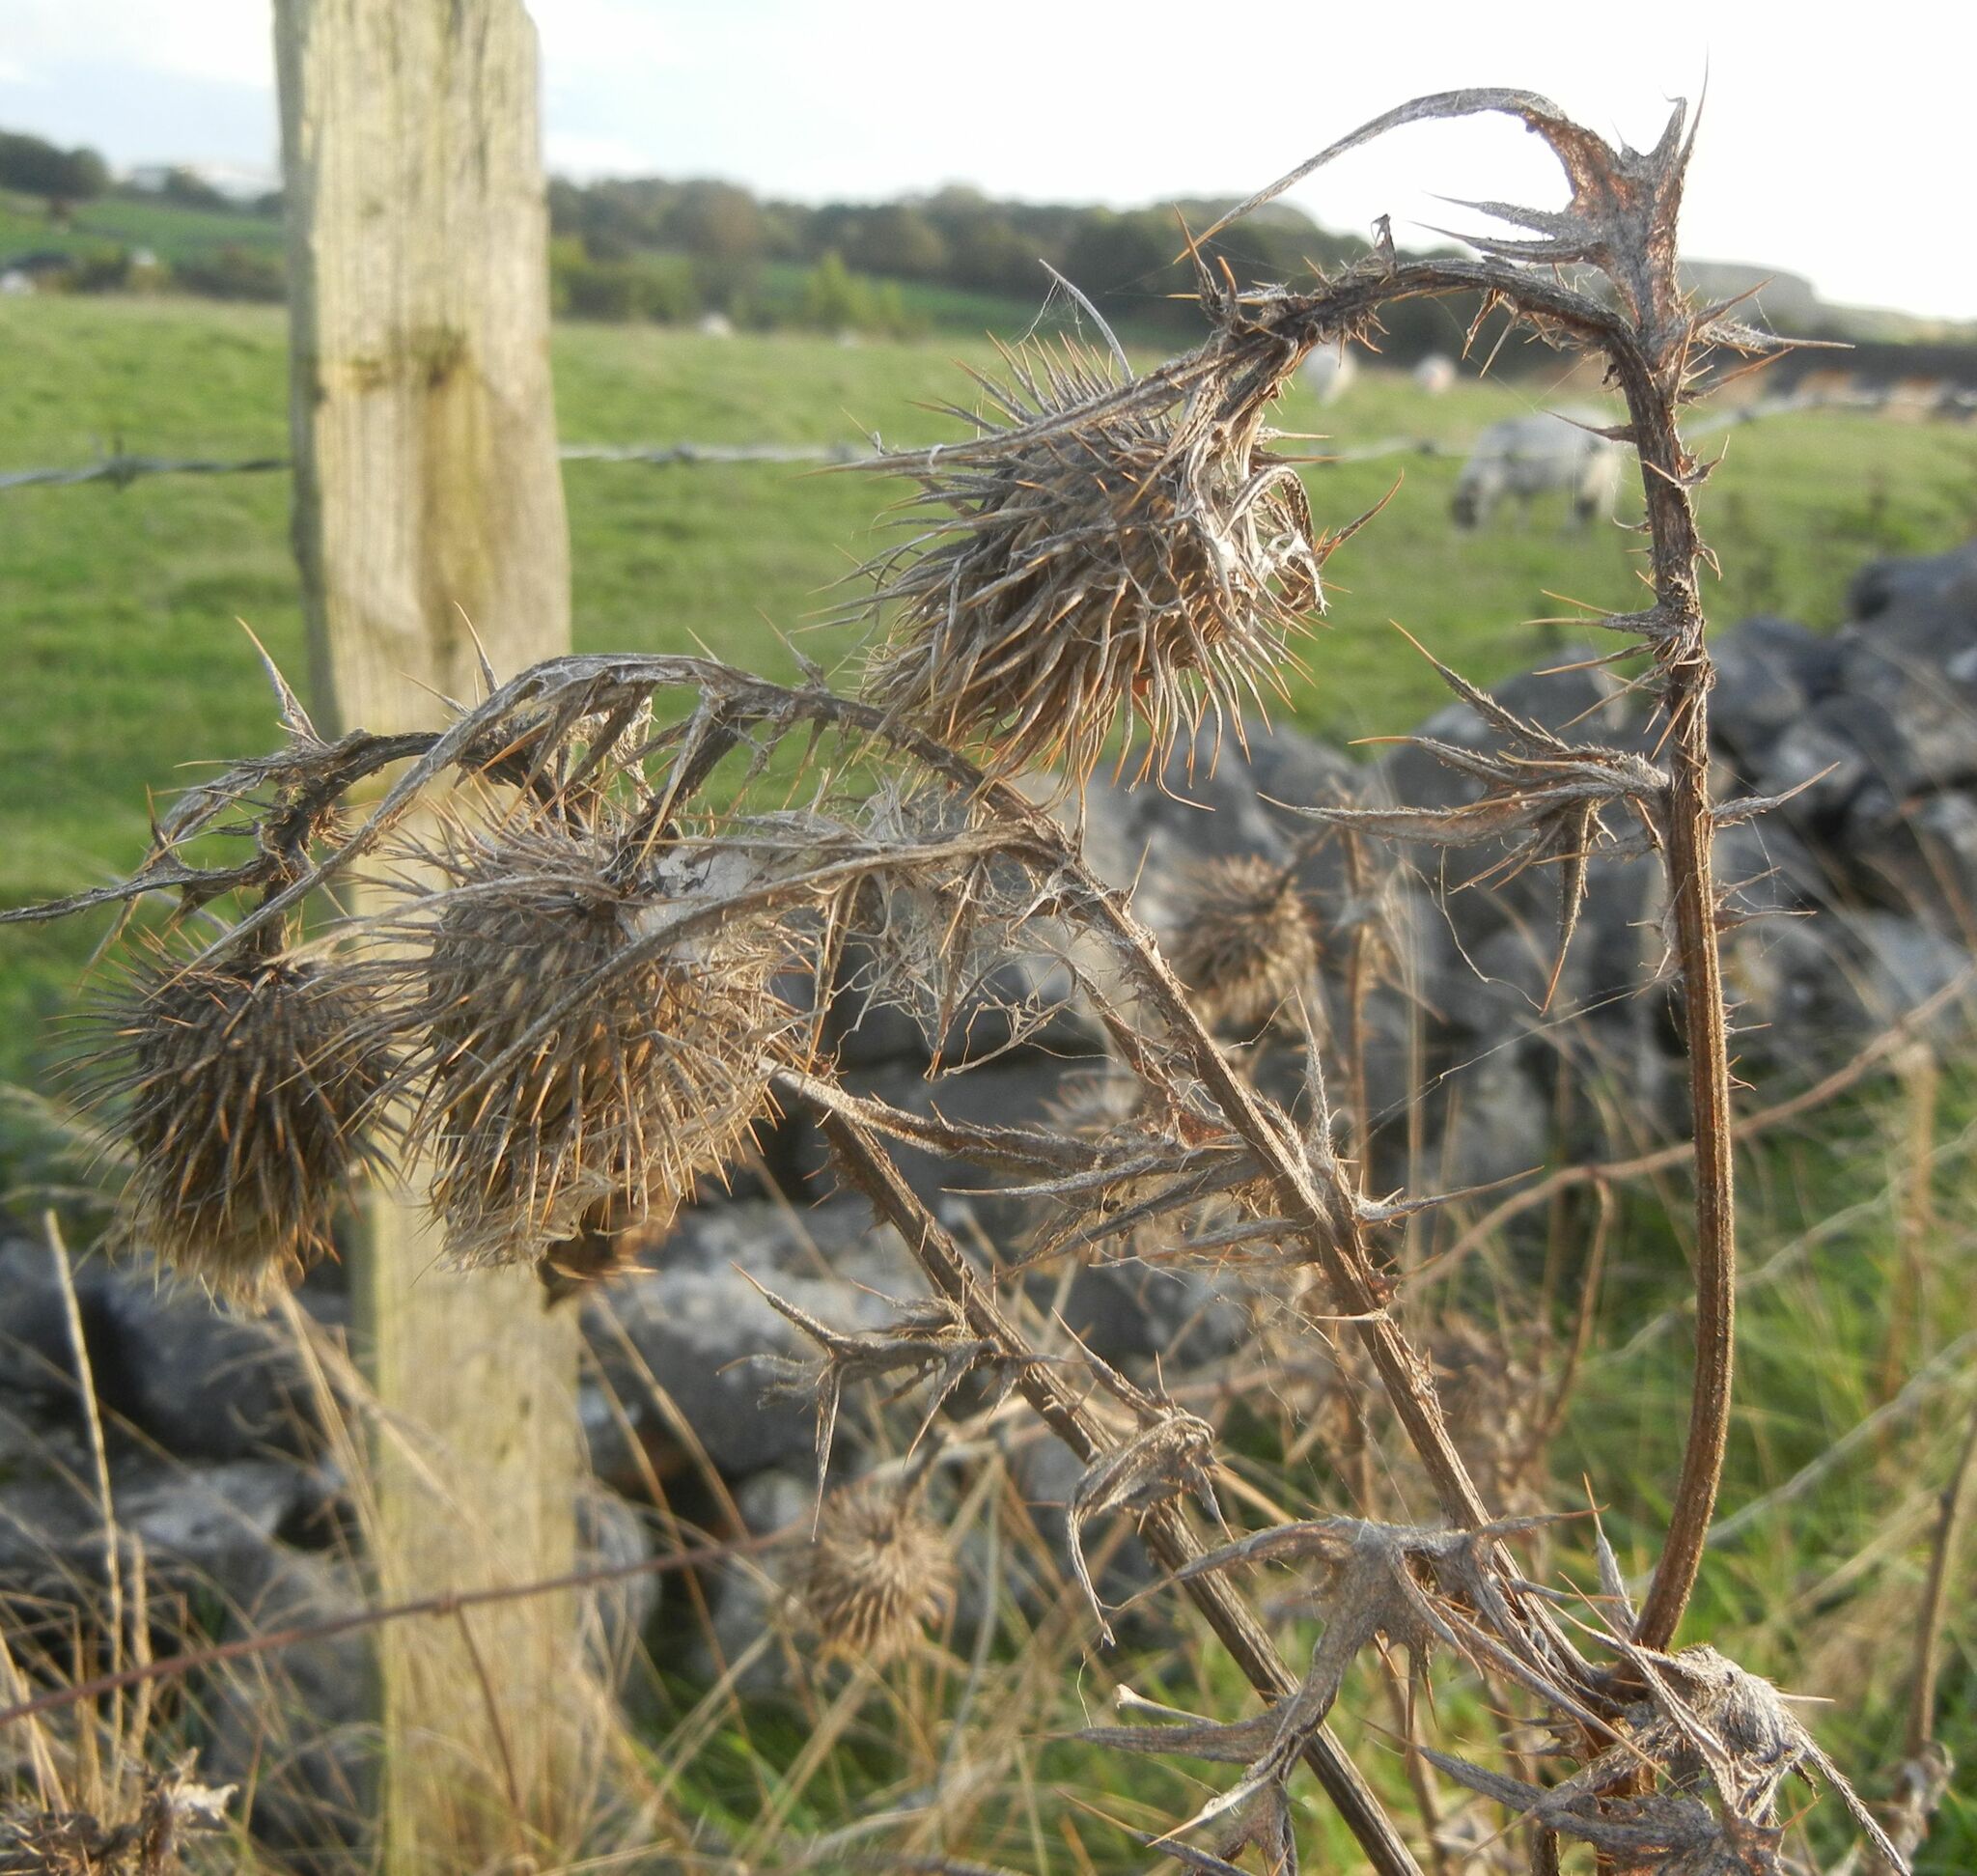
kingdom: Plantae
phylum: Tracheophyta
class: Magnoliopsida
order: Asterales
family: Asteraceae
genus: Cirsium
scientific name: Cirsium vulgare
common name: Bull thistle
